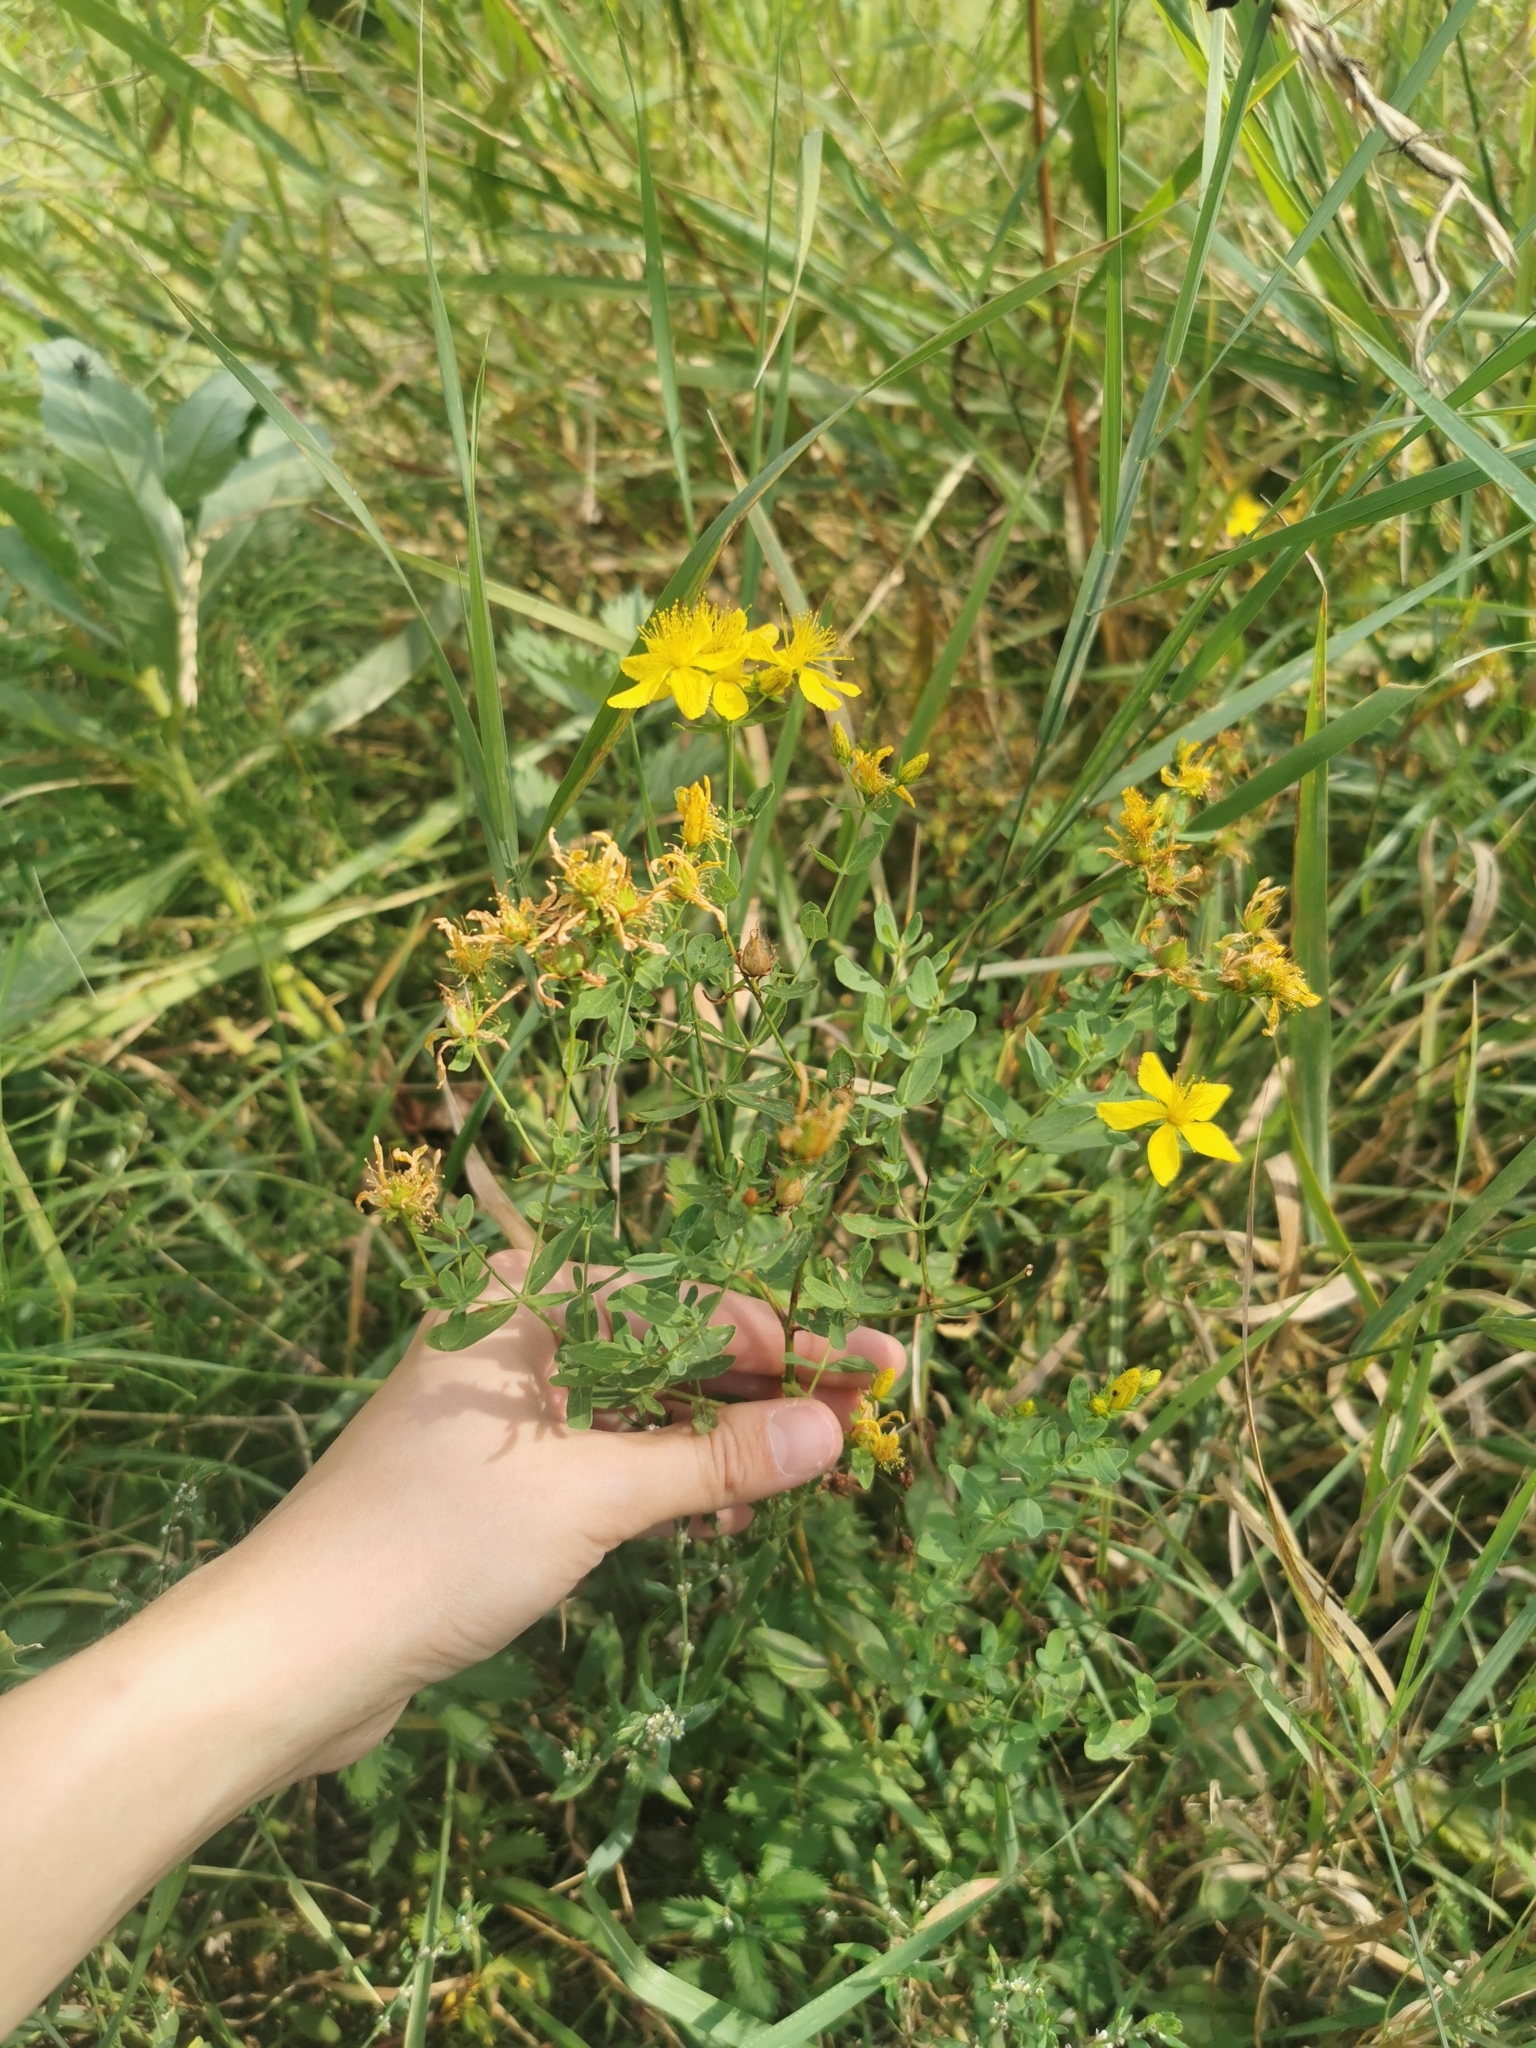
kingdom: Plantae
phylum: Tracheophyta
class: Magnoliopsida
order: Malpighiales
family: Hypericaceae
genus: Hypericum
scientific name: Hypericum perforatum
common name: Common st. johnswort
